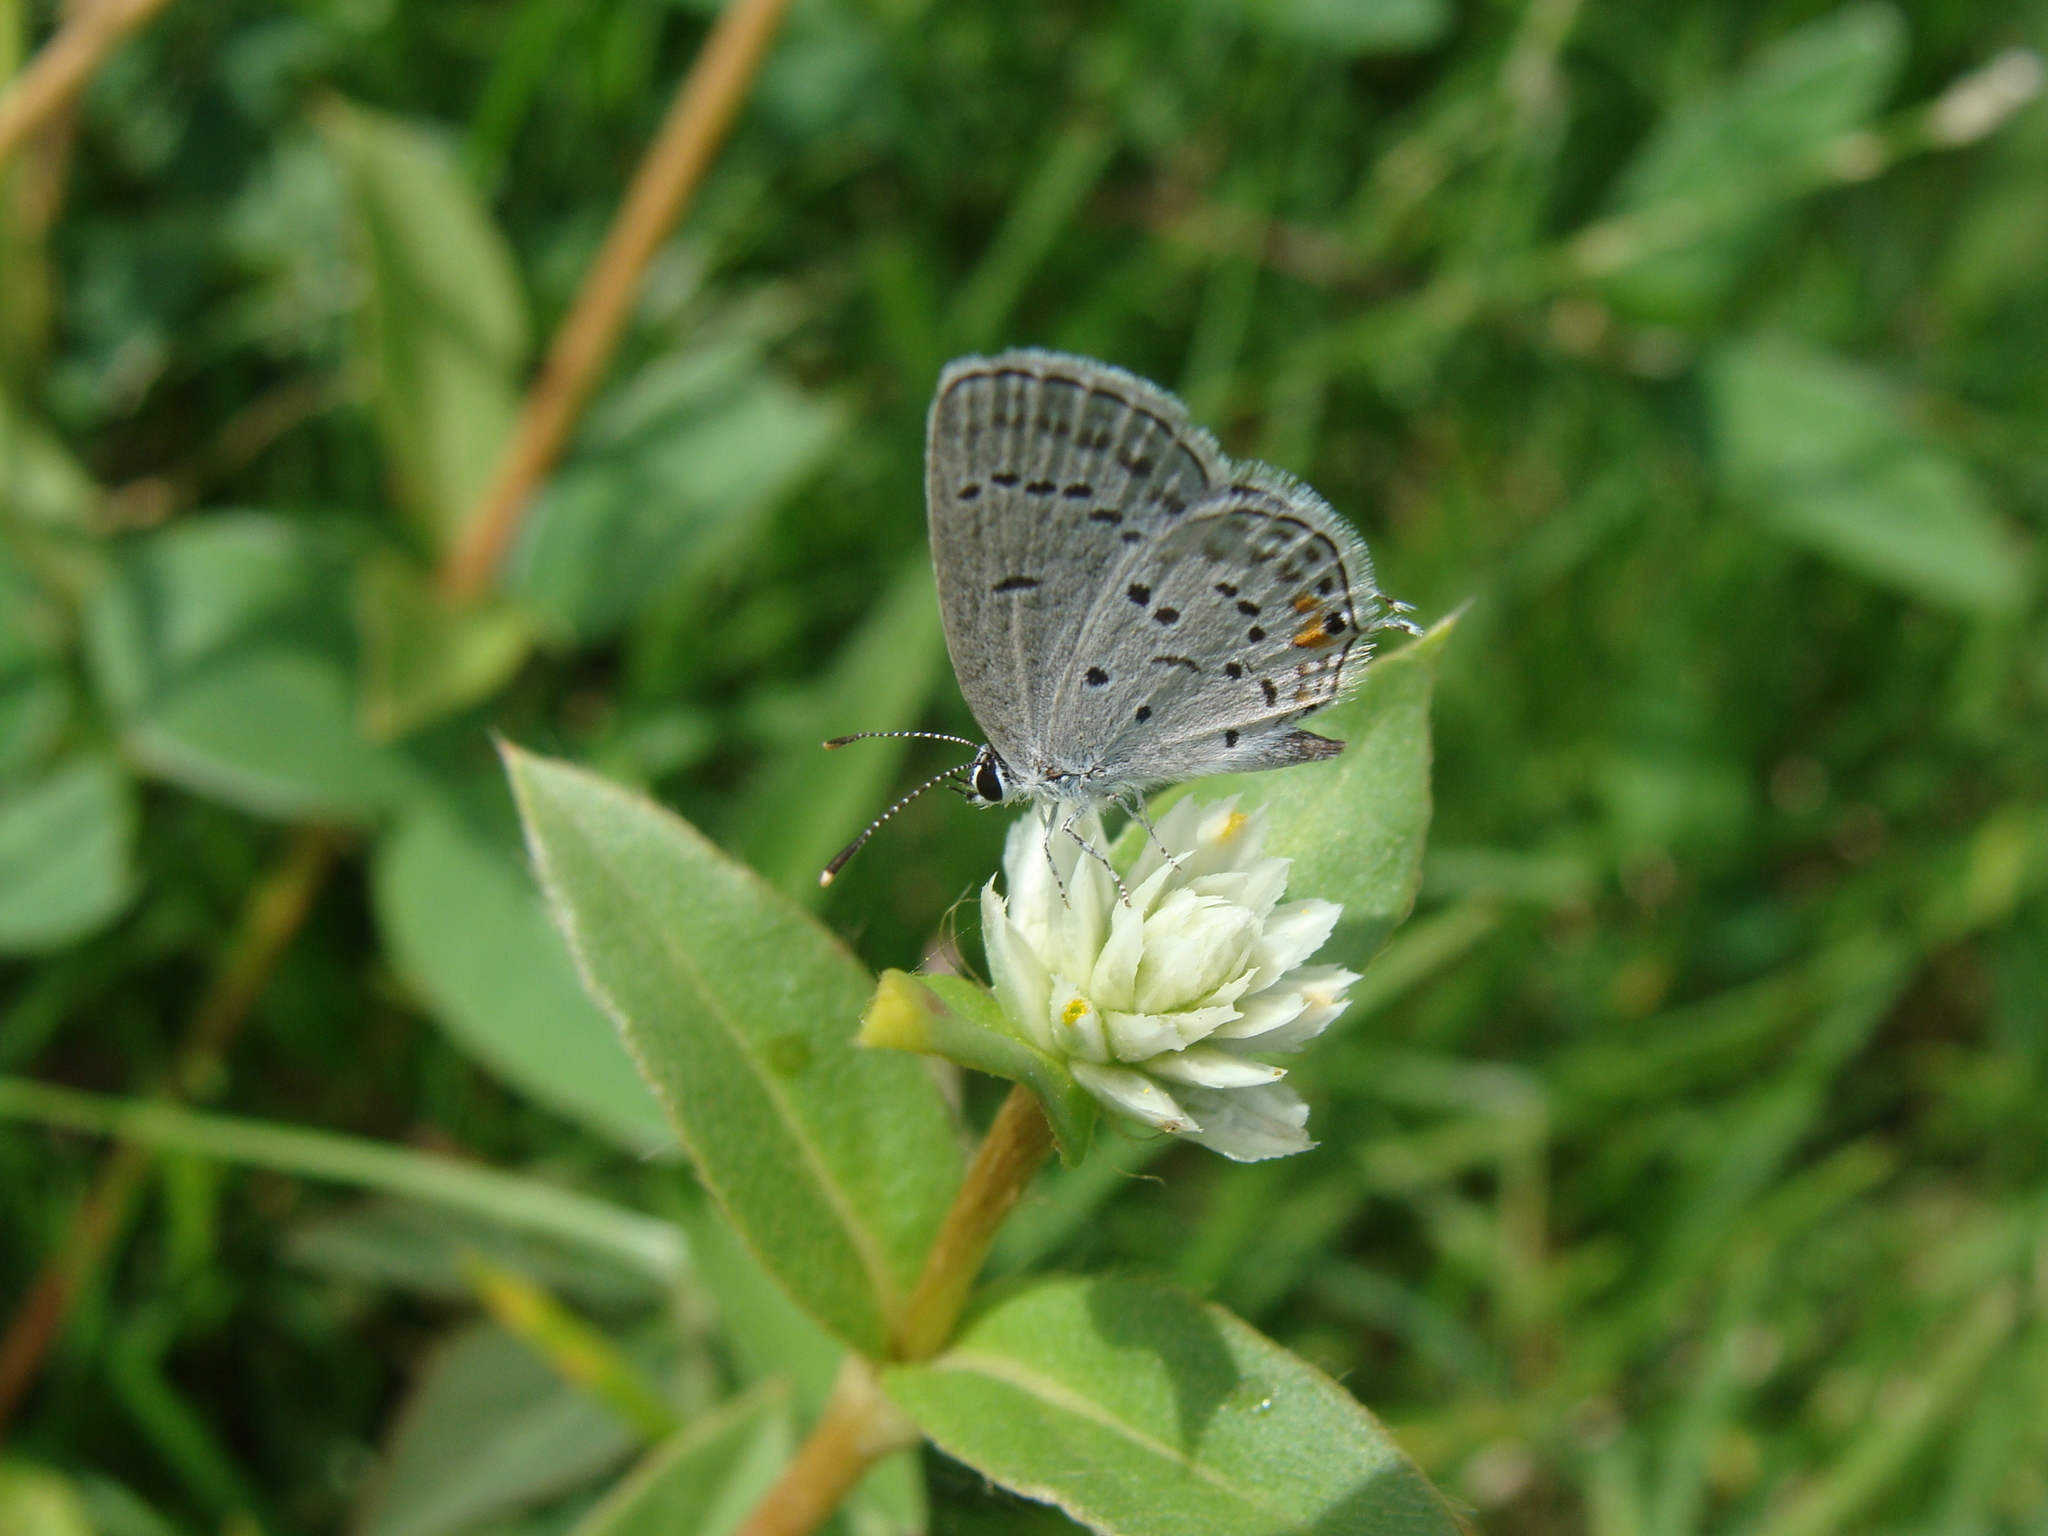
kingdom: Animalia
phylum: Arthropoda
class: Insecta
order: Lepidoptera
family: Lycaenidae
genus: Elkalyce
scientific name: Elkalyce comyntas
